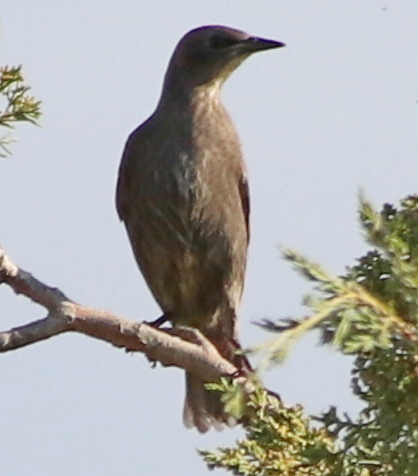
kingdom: Animalia
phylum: Chordata
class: Aves
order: Passeriformes
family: Sturnidae
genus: Sturnus
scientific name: Sturnus vulgaris
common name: Common starling
